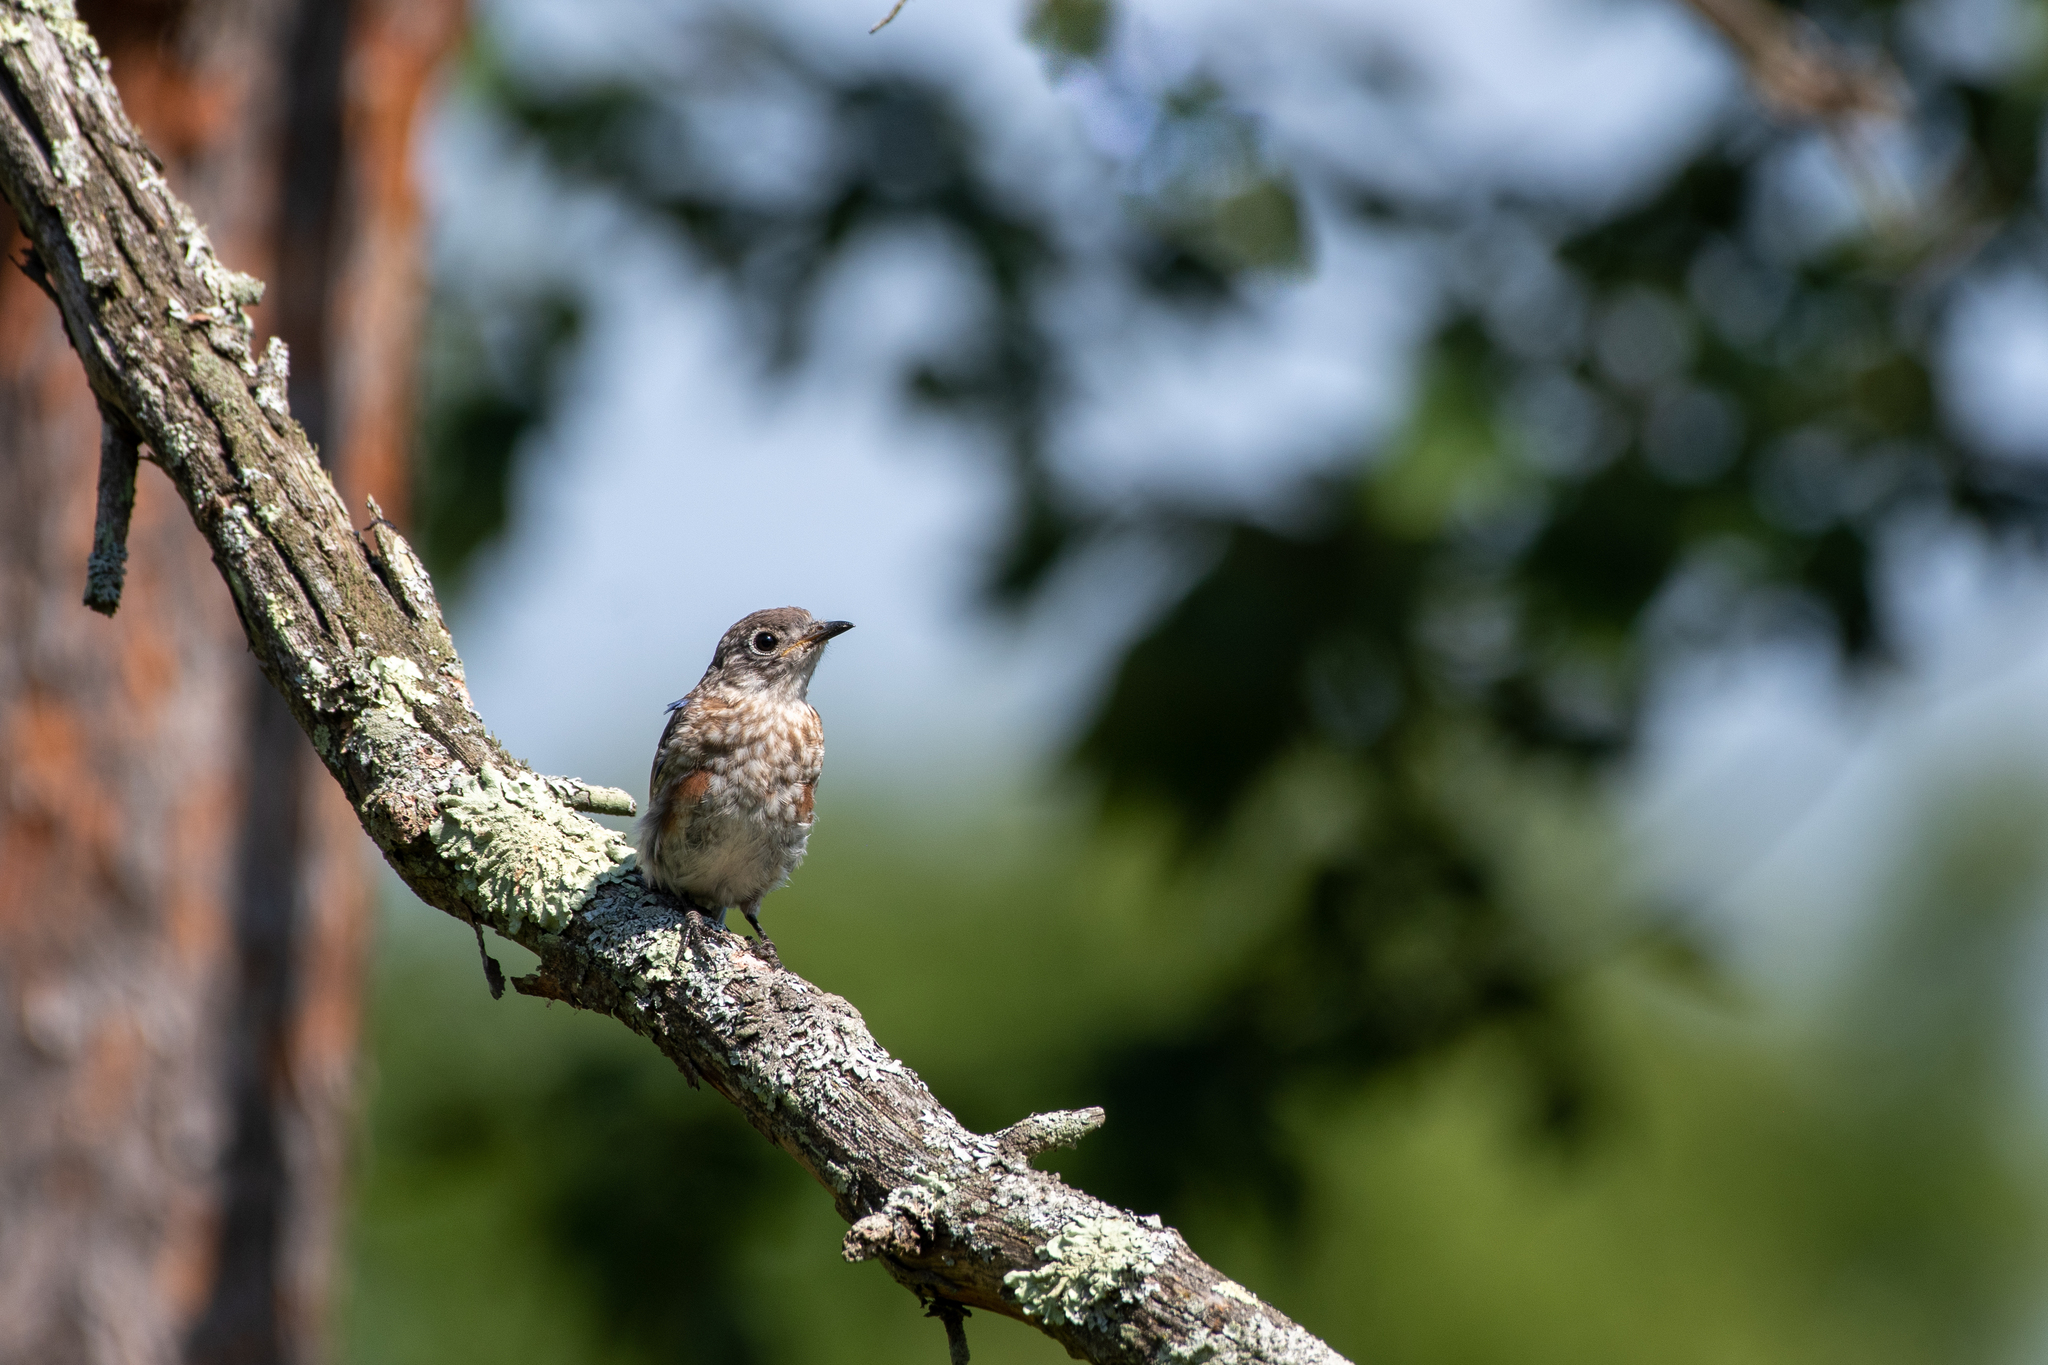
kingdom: Animalia
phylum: Chordata
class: Aves
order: Passeriformes
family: Turdidae
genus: Sialia
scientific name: Sialia sialis
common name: Eastern bluebird
